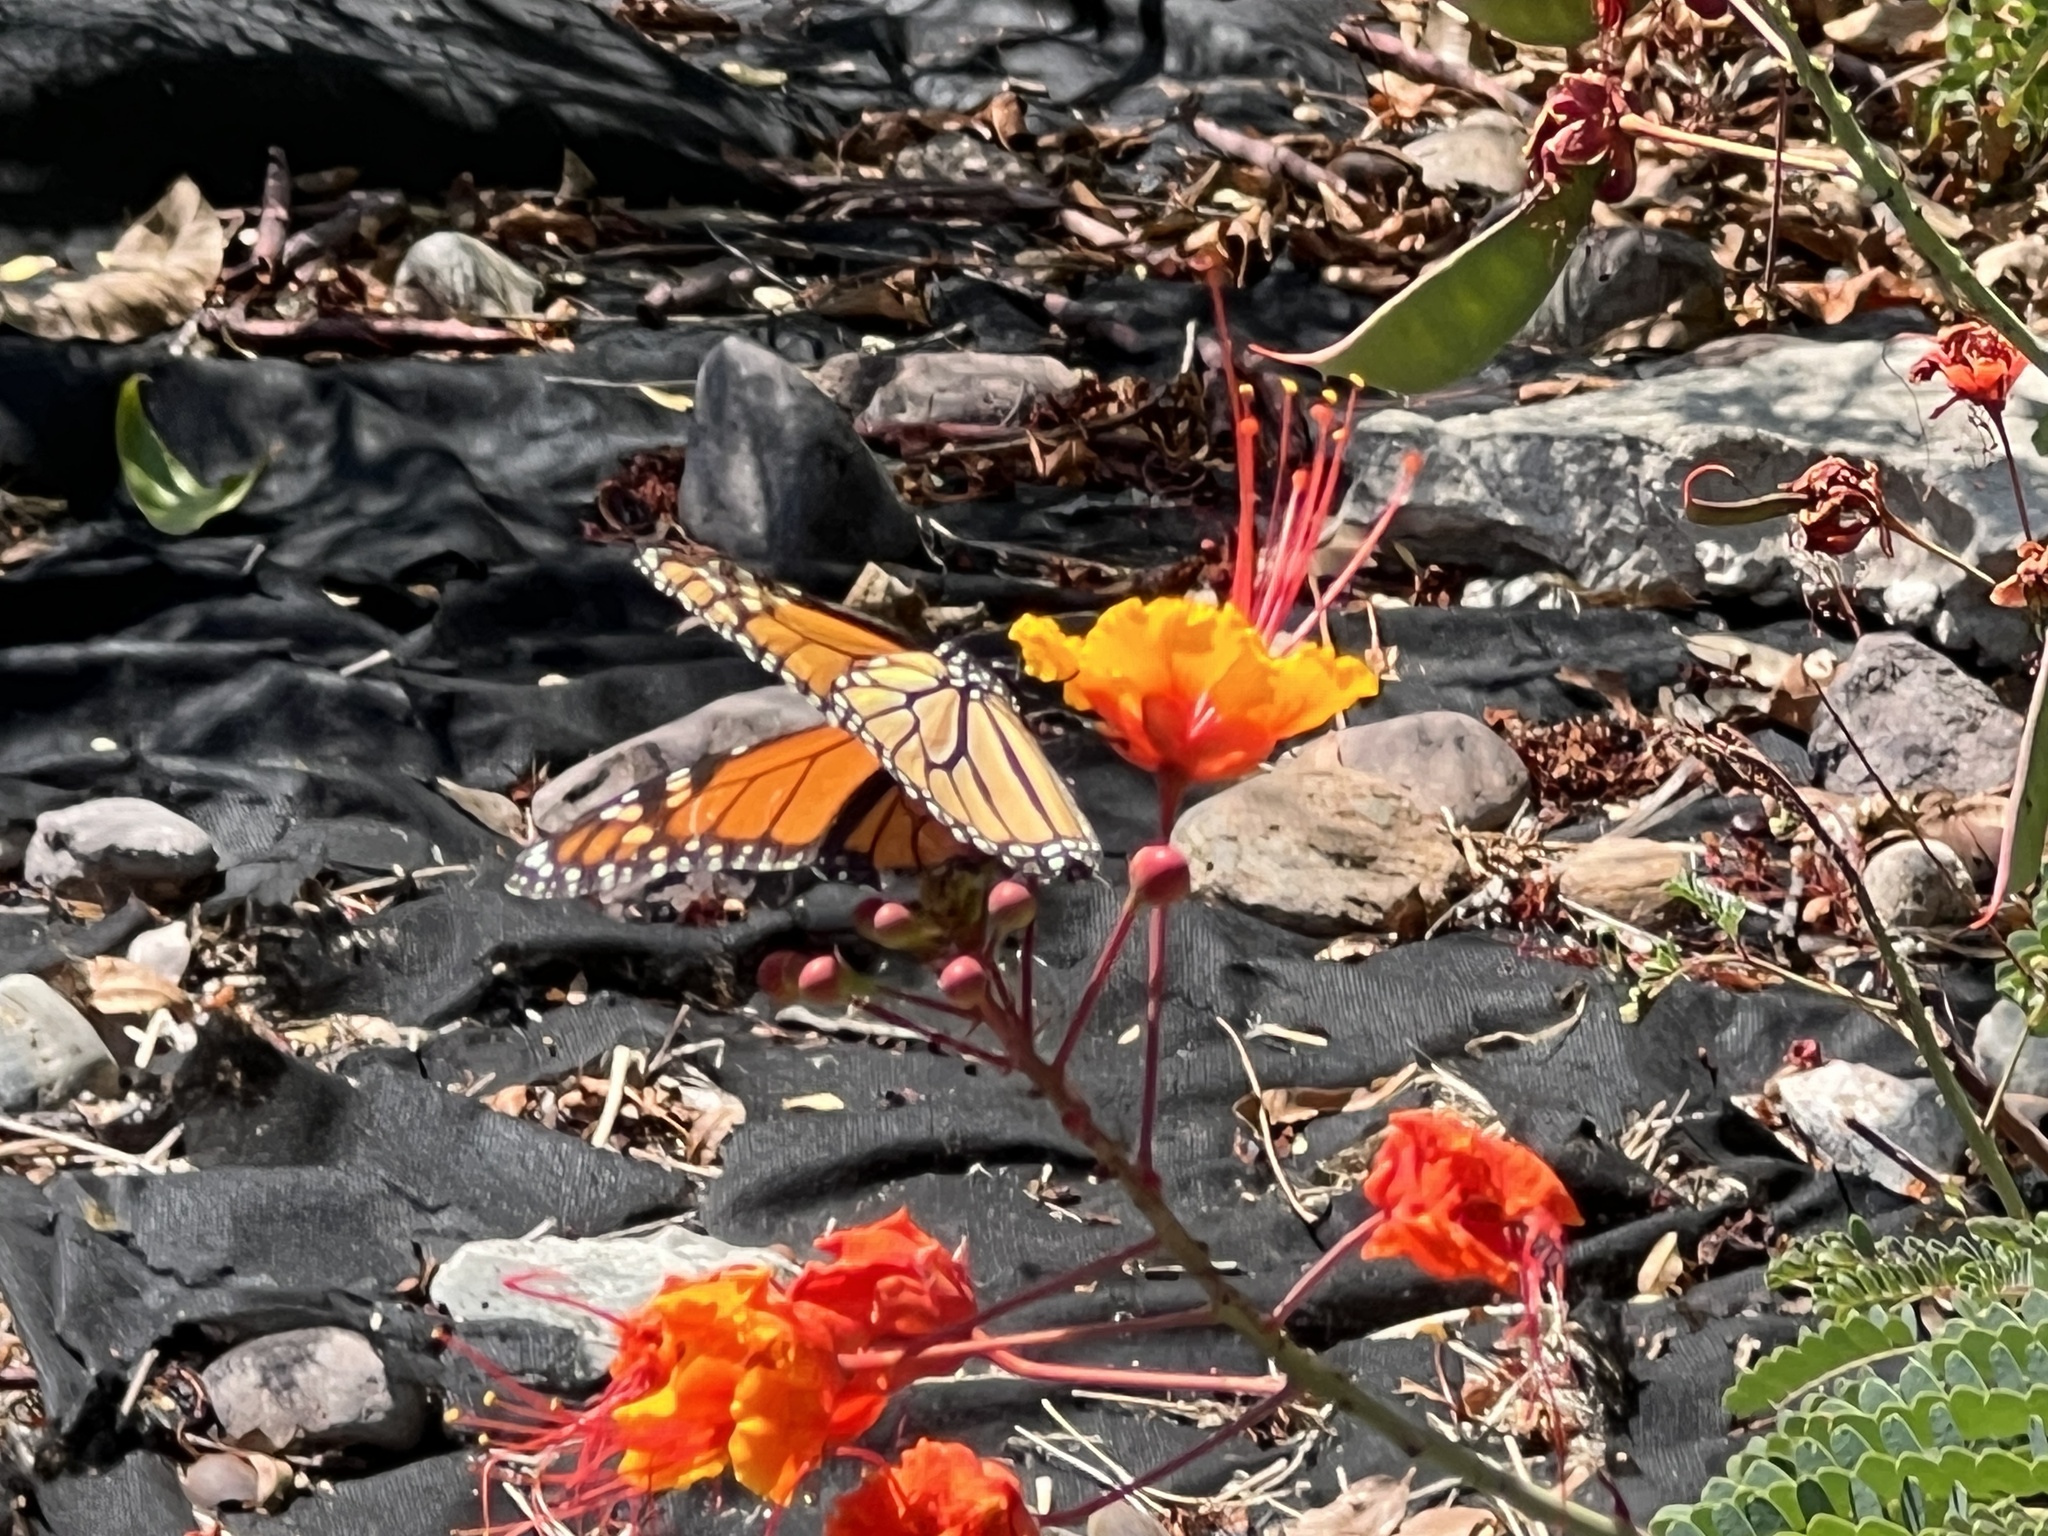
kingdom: Animalia
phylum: Arthropoda
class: Insecta
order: Lepidoptera
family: Nymphalidae
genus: Danaus
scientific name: Danaus plexippus
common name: Monarch
